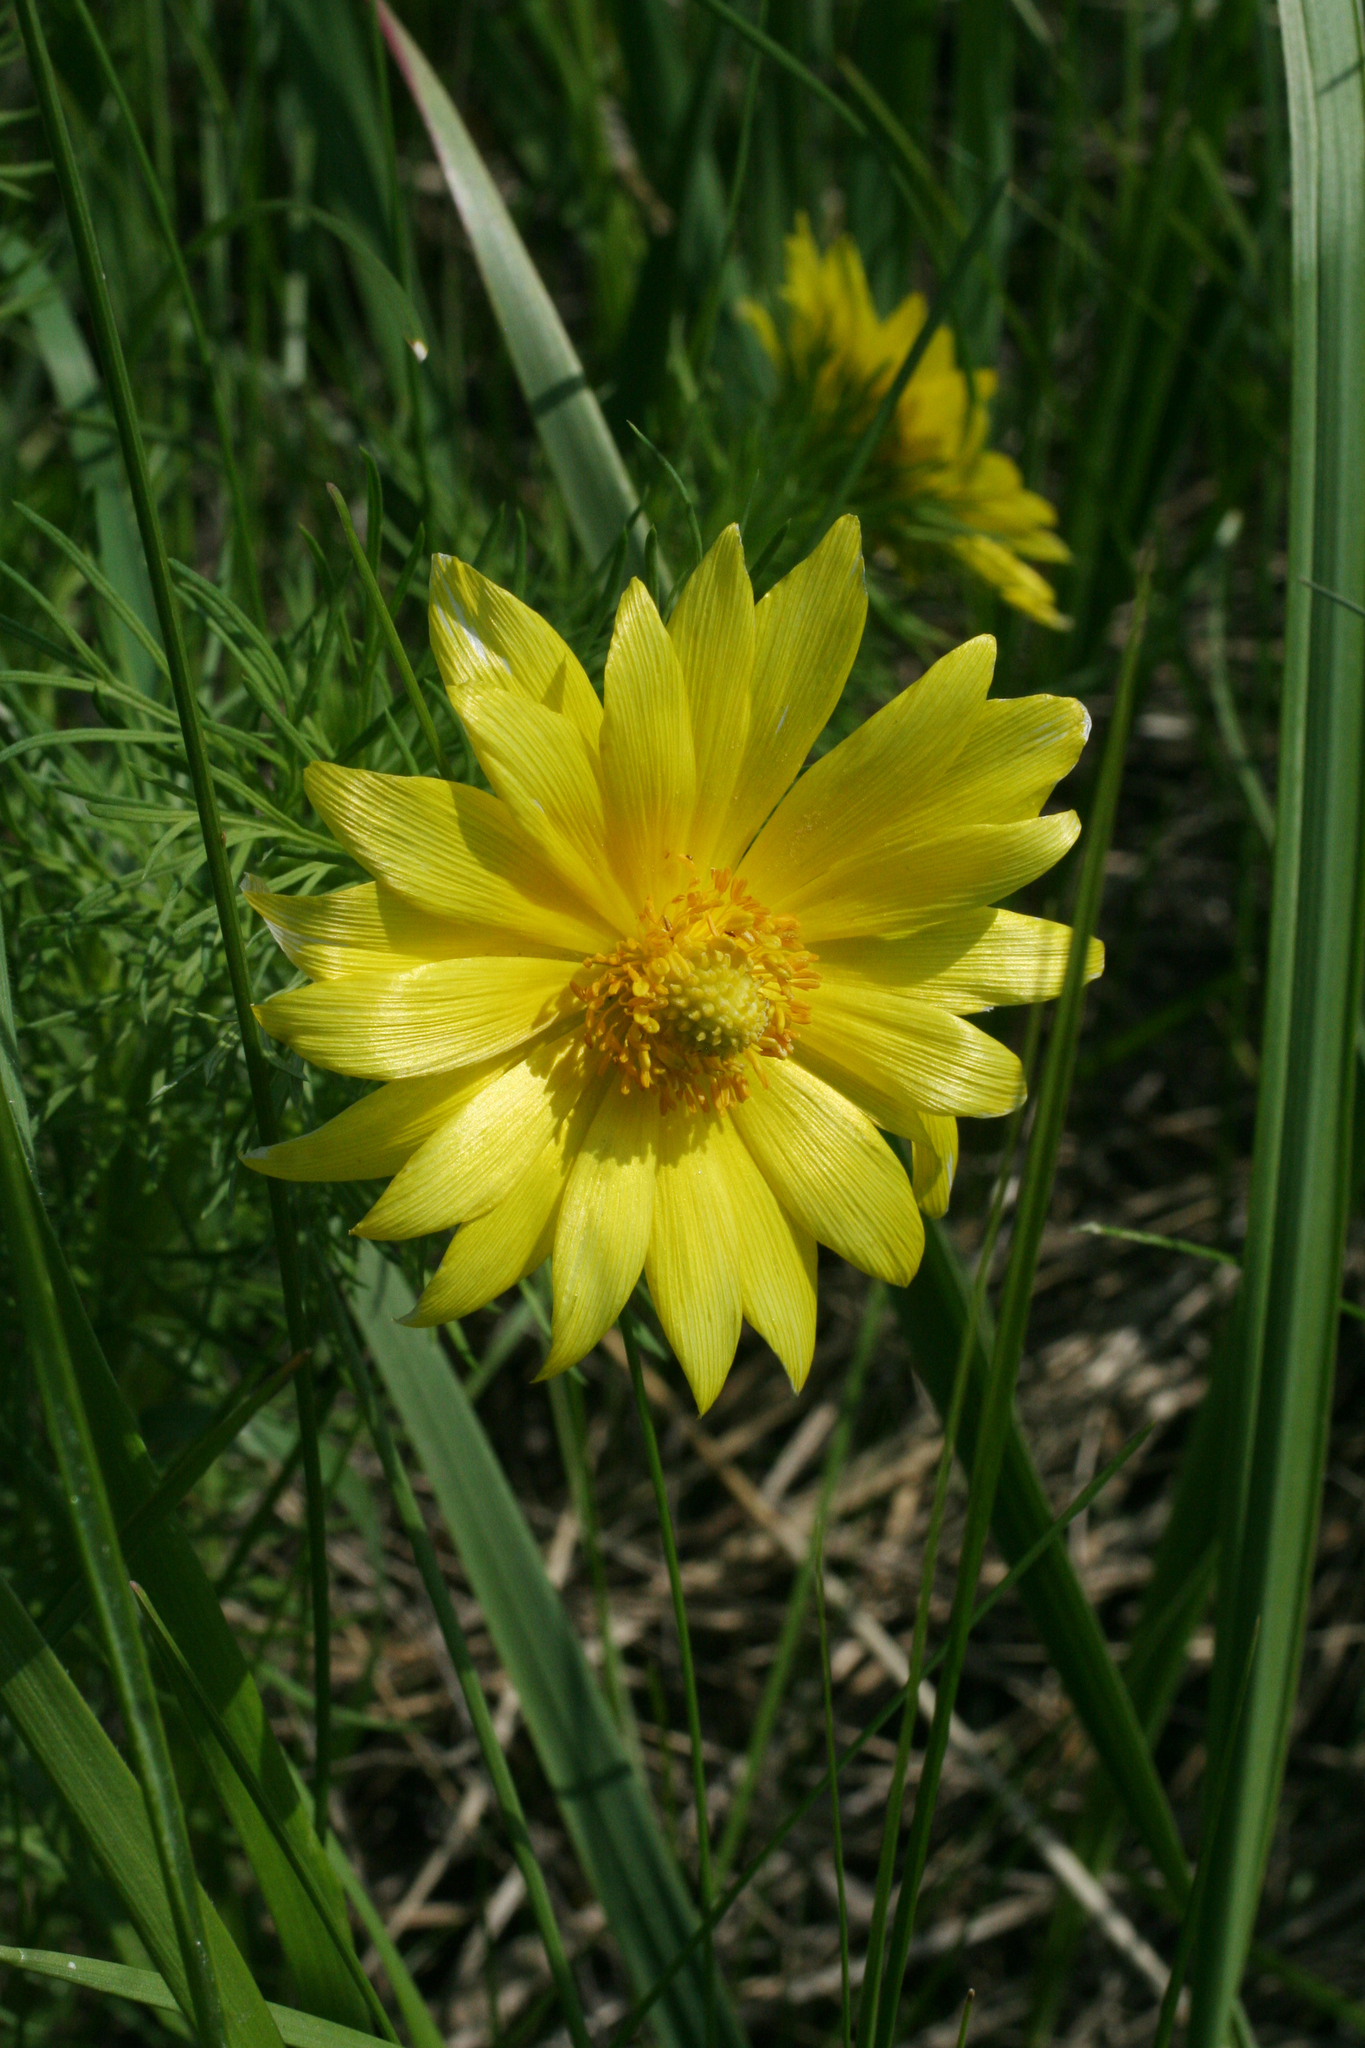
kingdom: Plantae
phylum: Tracheophyta
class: Magnoliopsida
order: Ranunculales
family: Ranunculaceae
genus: Adonis
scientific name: Adonis vernalis
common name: Yellow pheasants-eye
